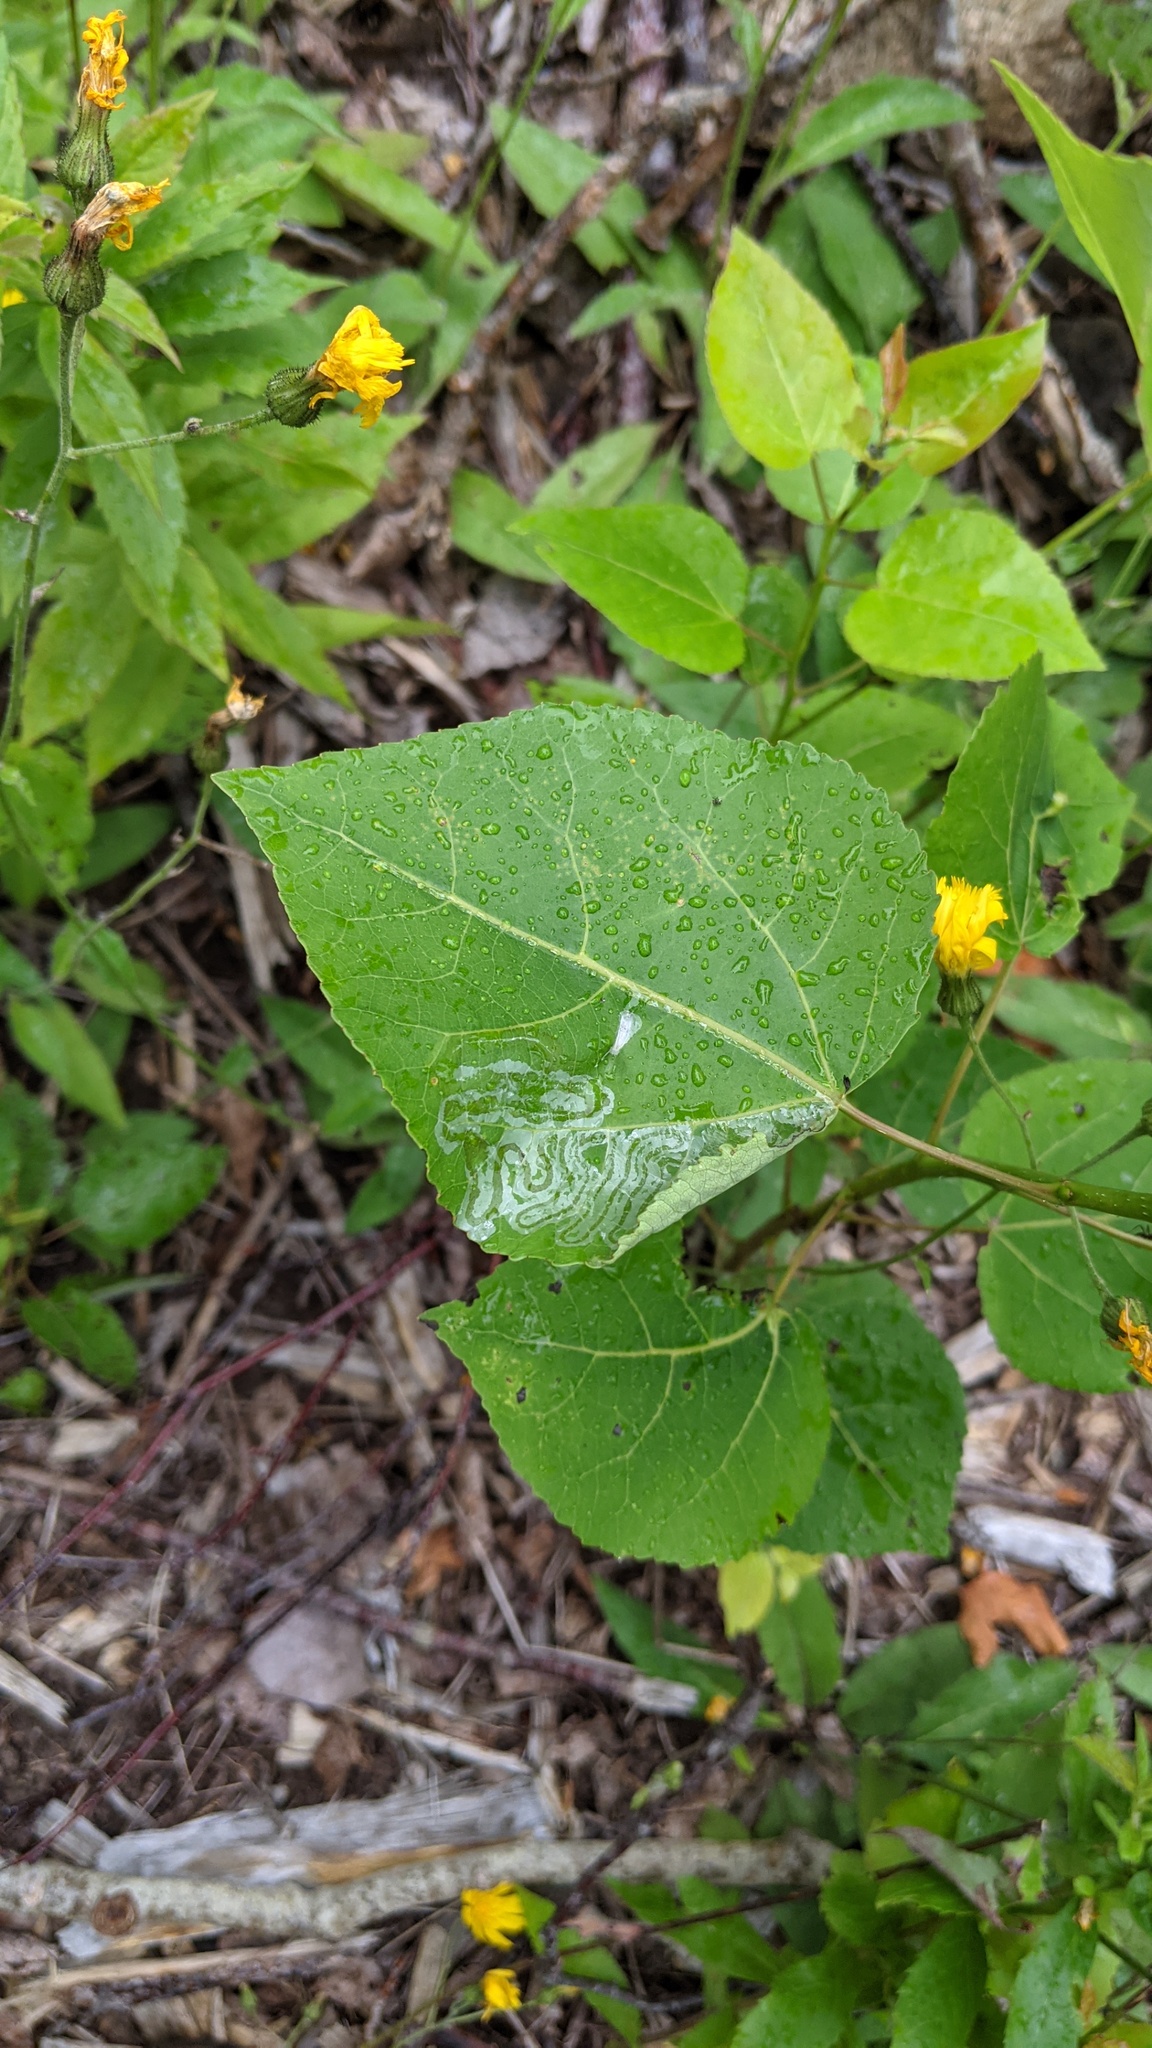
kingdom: Animalia
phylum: Arthropoda
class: Insecta
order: Lepidoptera
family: Gracillariidae
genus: Phyllocnistis
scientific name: Phyllocnistis populiella
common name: Aspen serpentine leafminer moth
